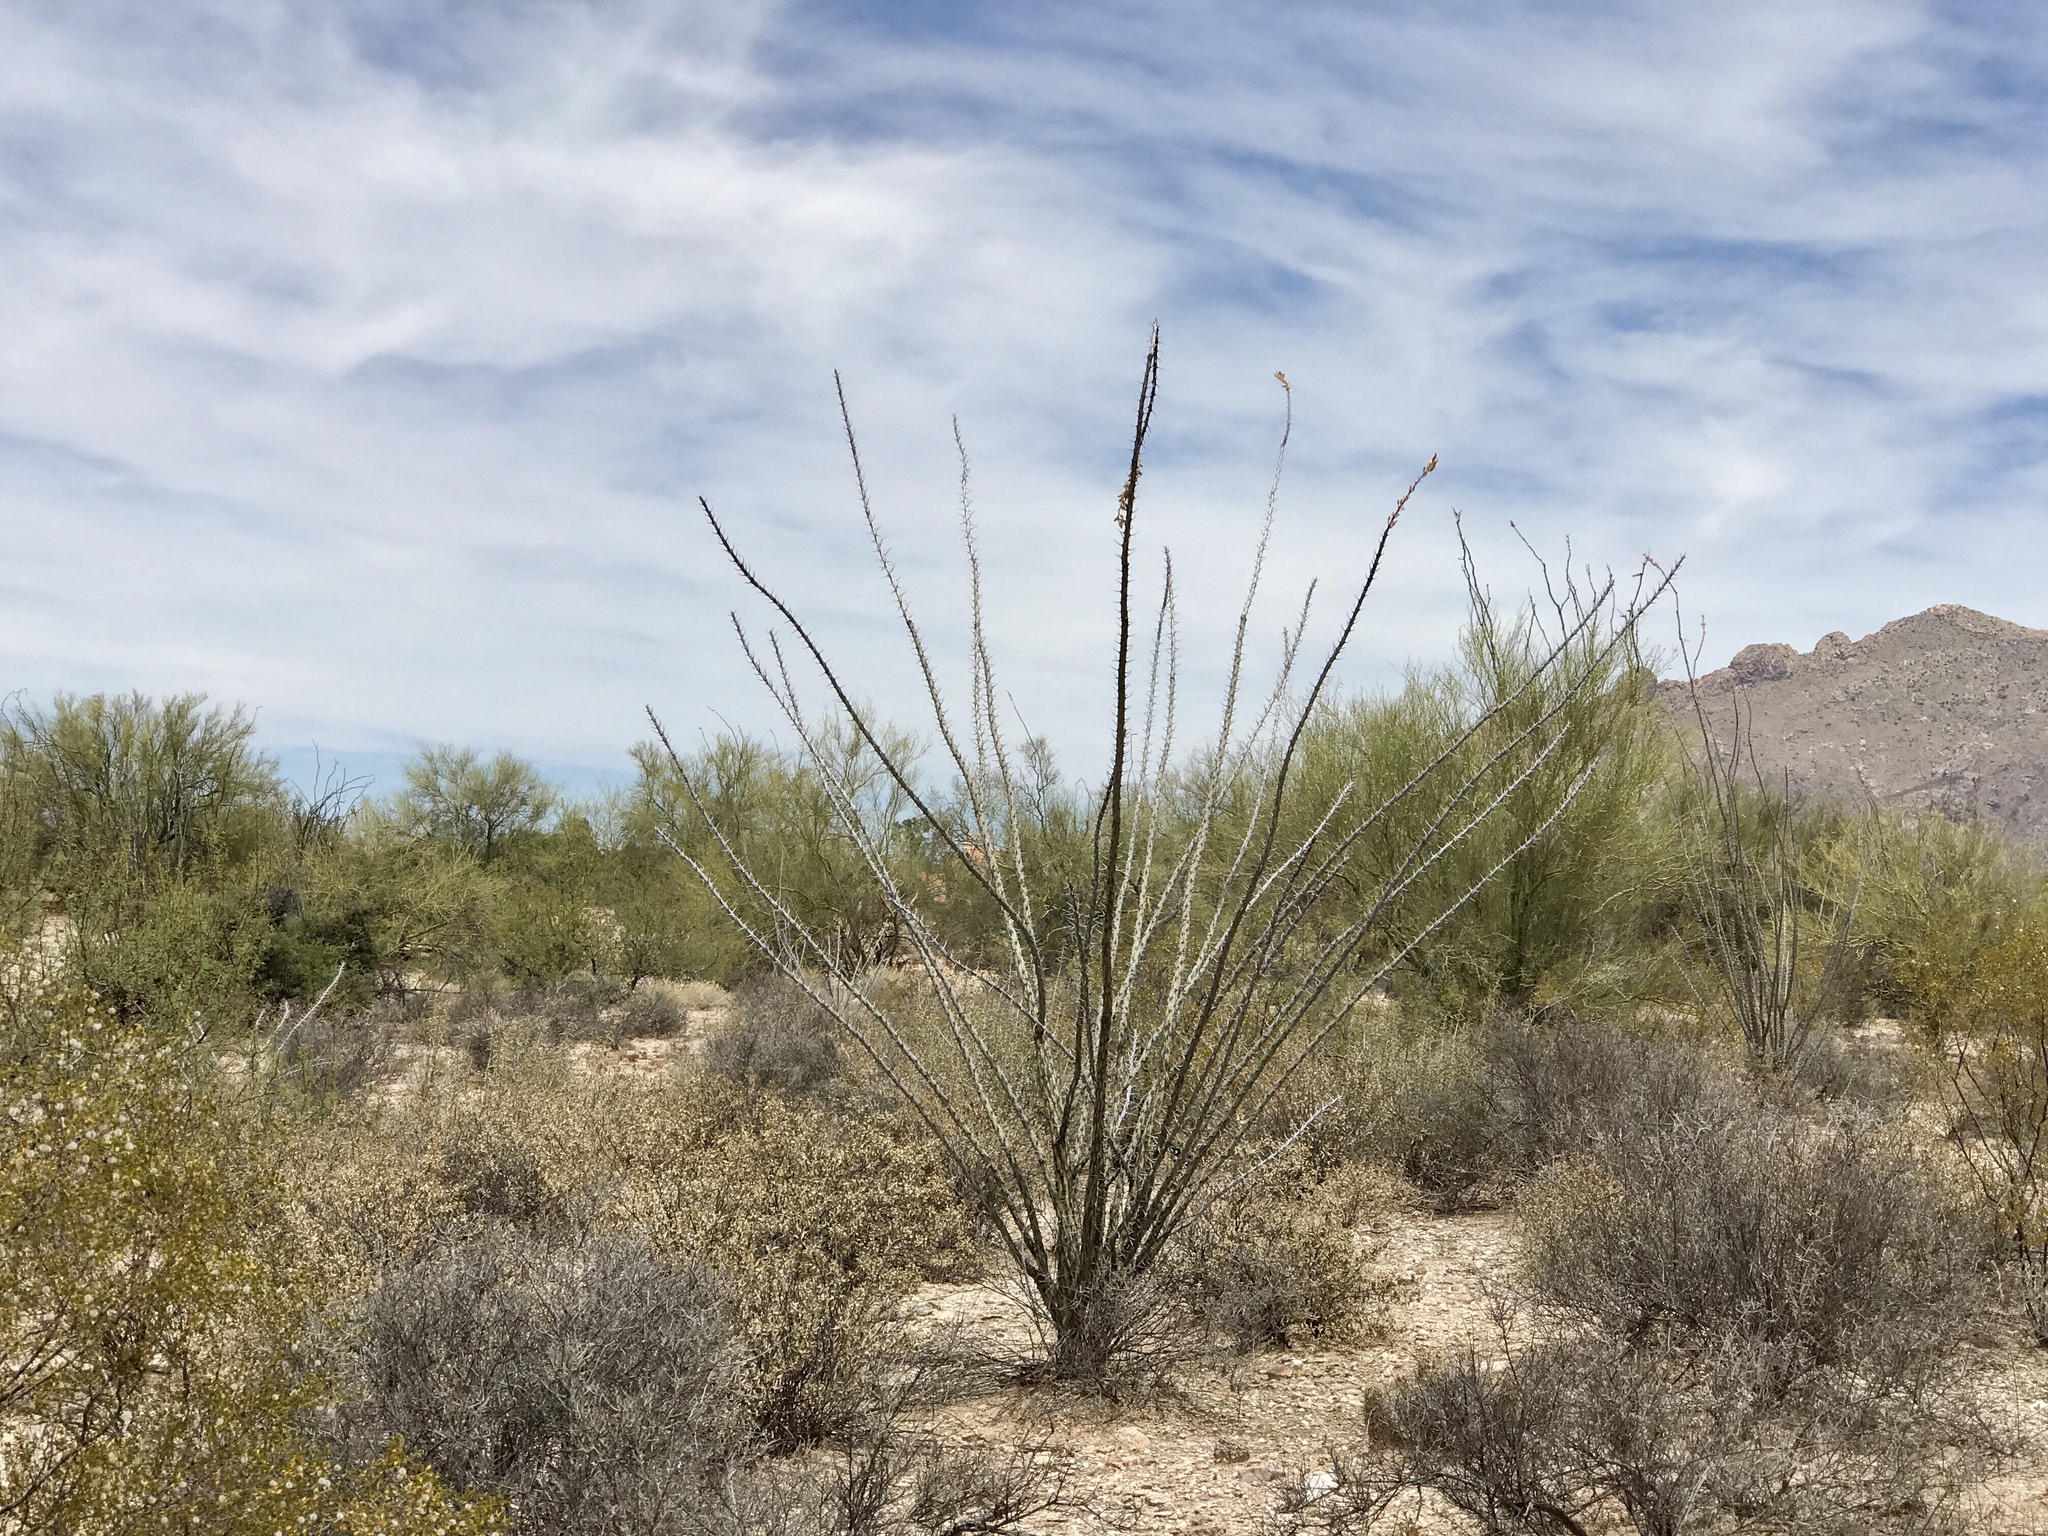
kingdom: Plantae
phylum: Tracheophyta
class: Magnoliopsida
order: Ericales
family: Fouquieriaceae
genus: Fouquieria
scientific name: Fouquieria splendens
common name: Vine-cactus
